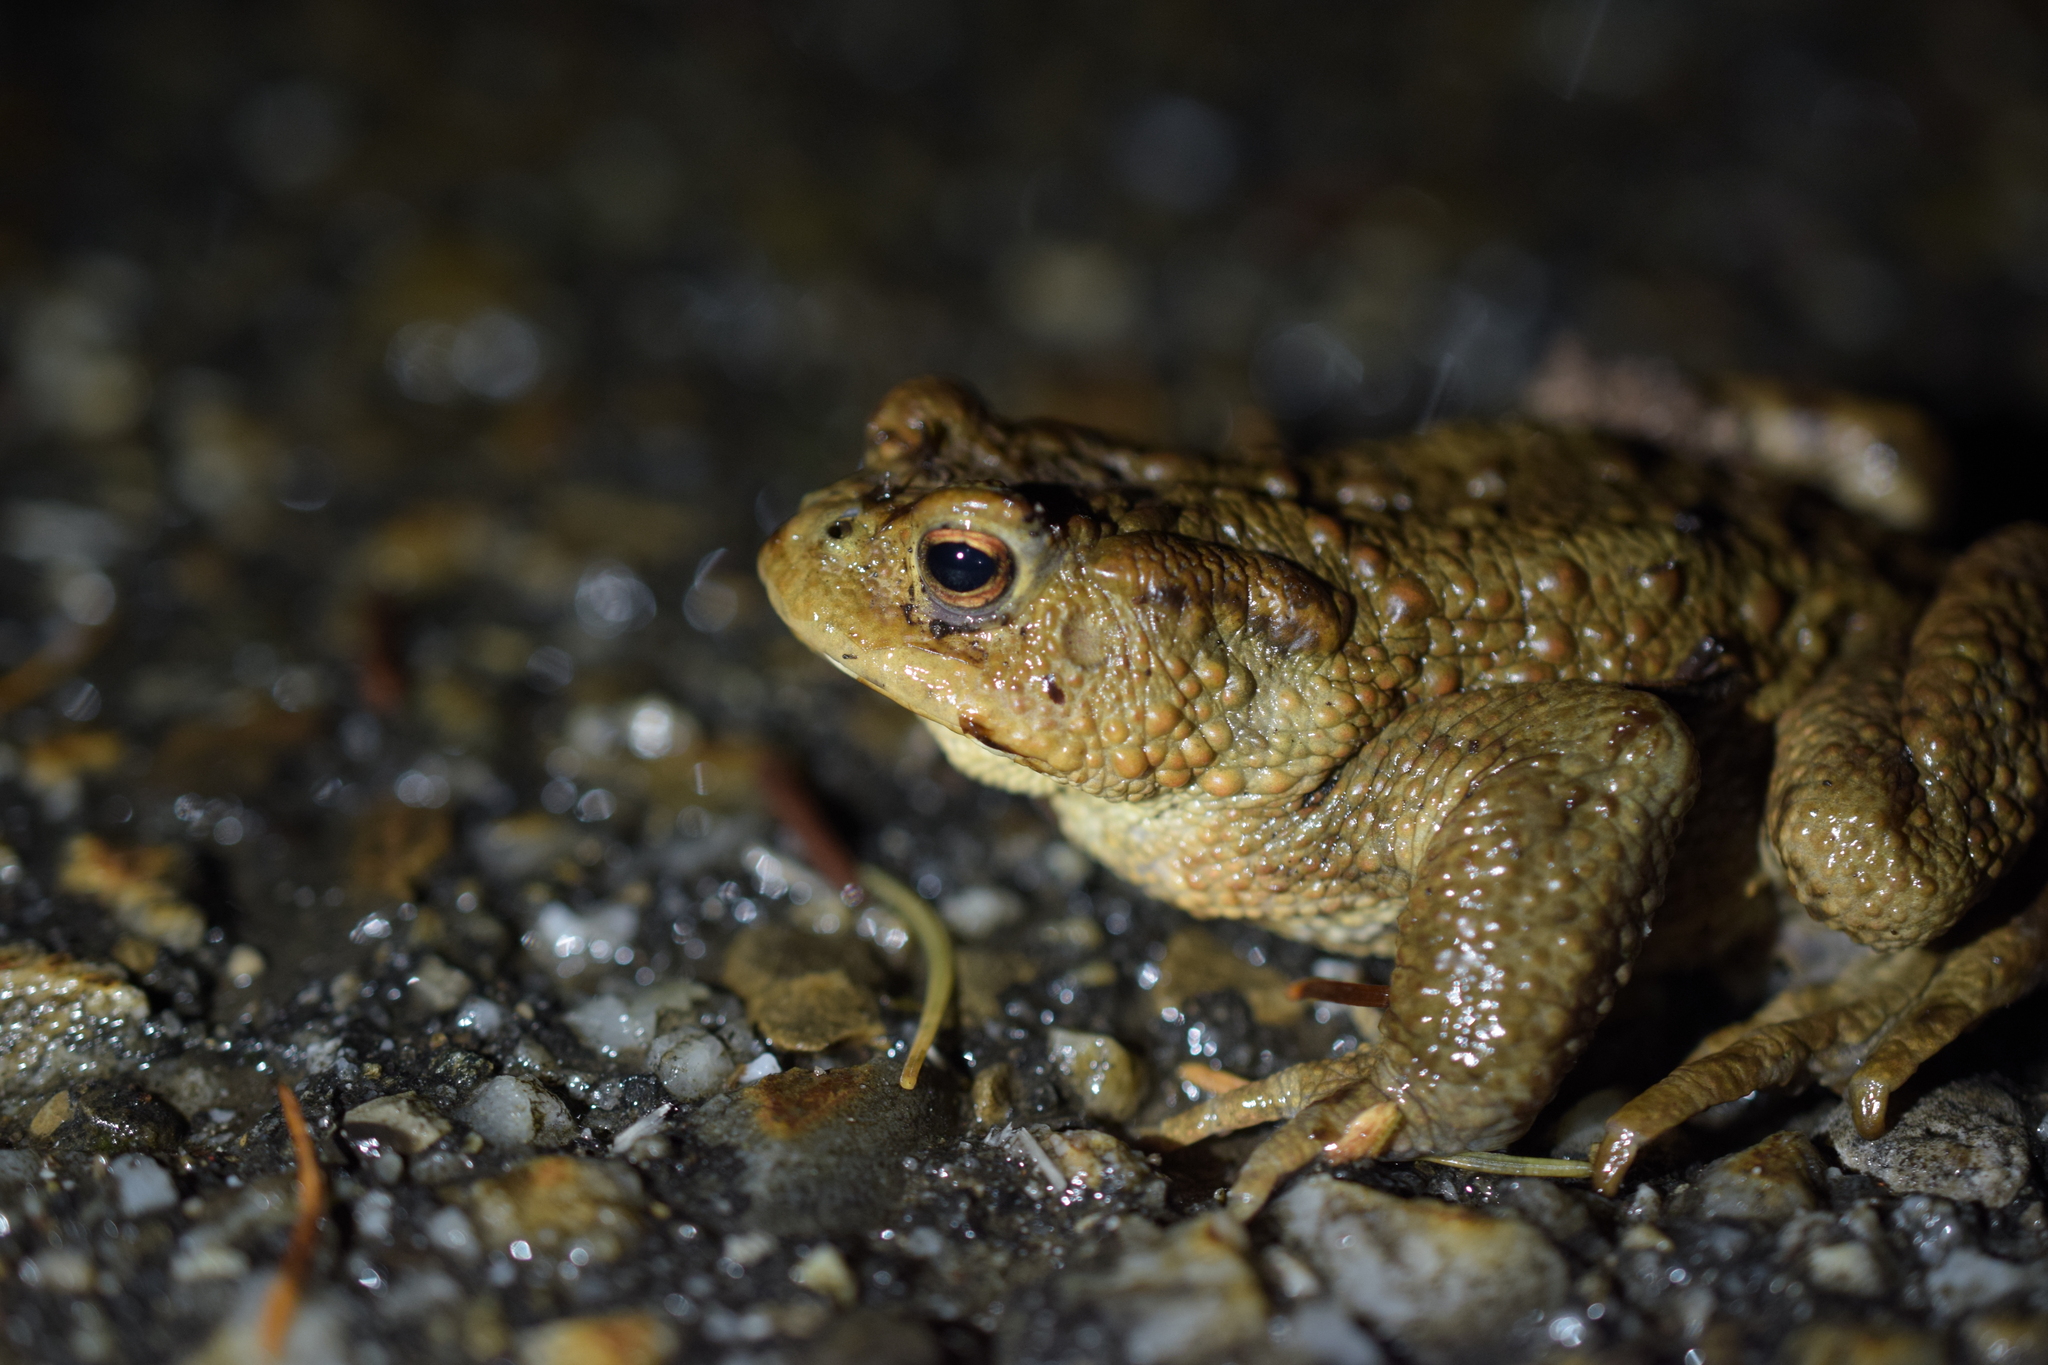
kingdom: Animalia
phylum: Chordata
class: Amphibia
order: Anura
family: Bufonidae
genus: Bufo
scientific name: Bufo bufo
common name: Common toad
